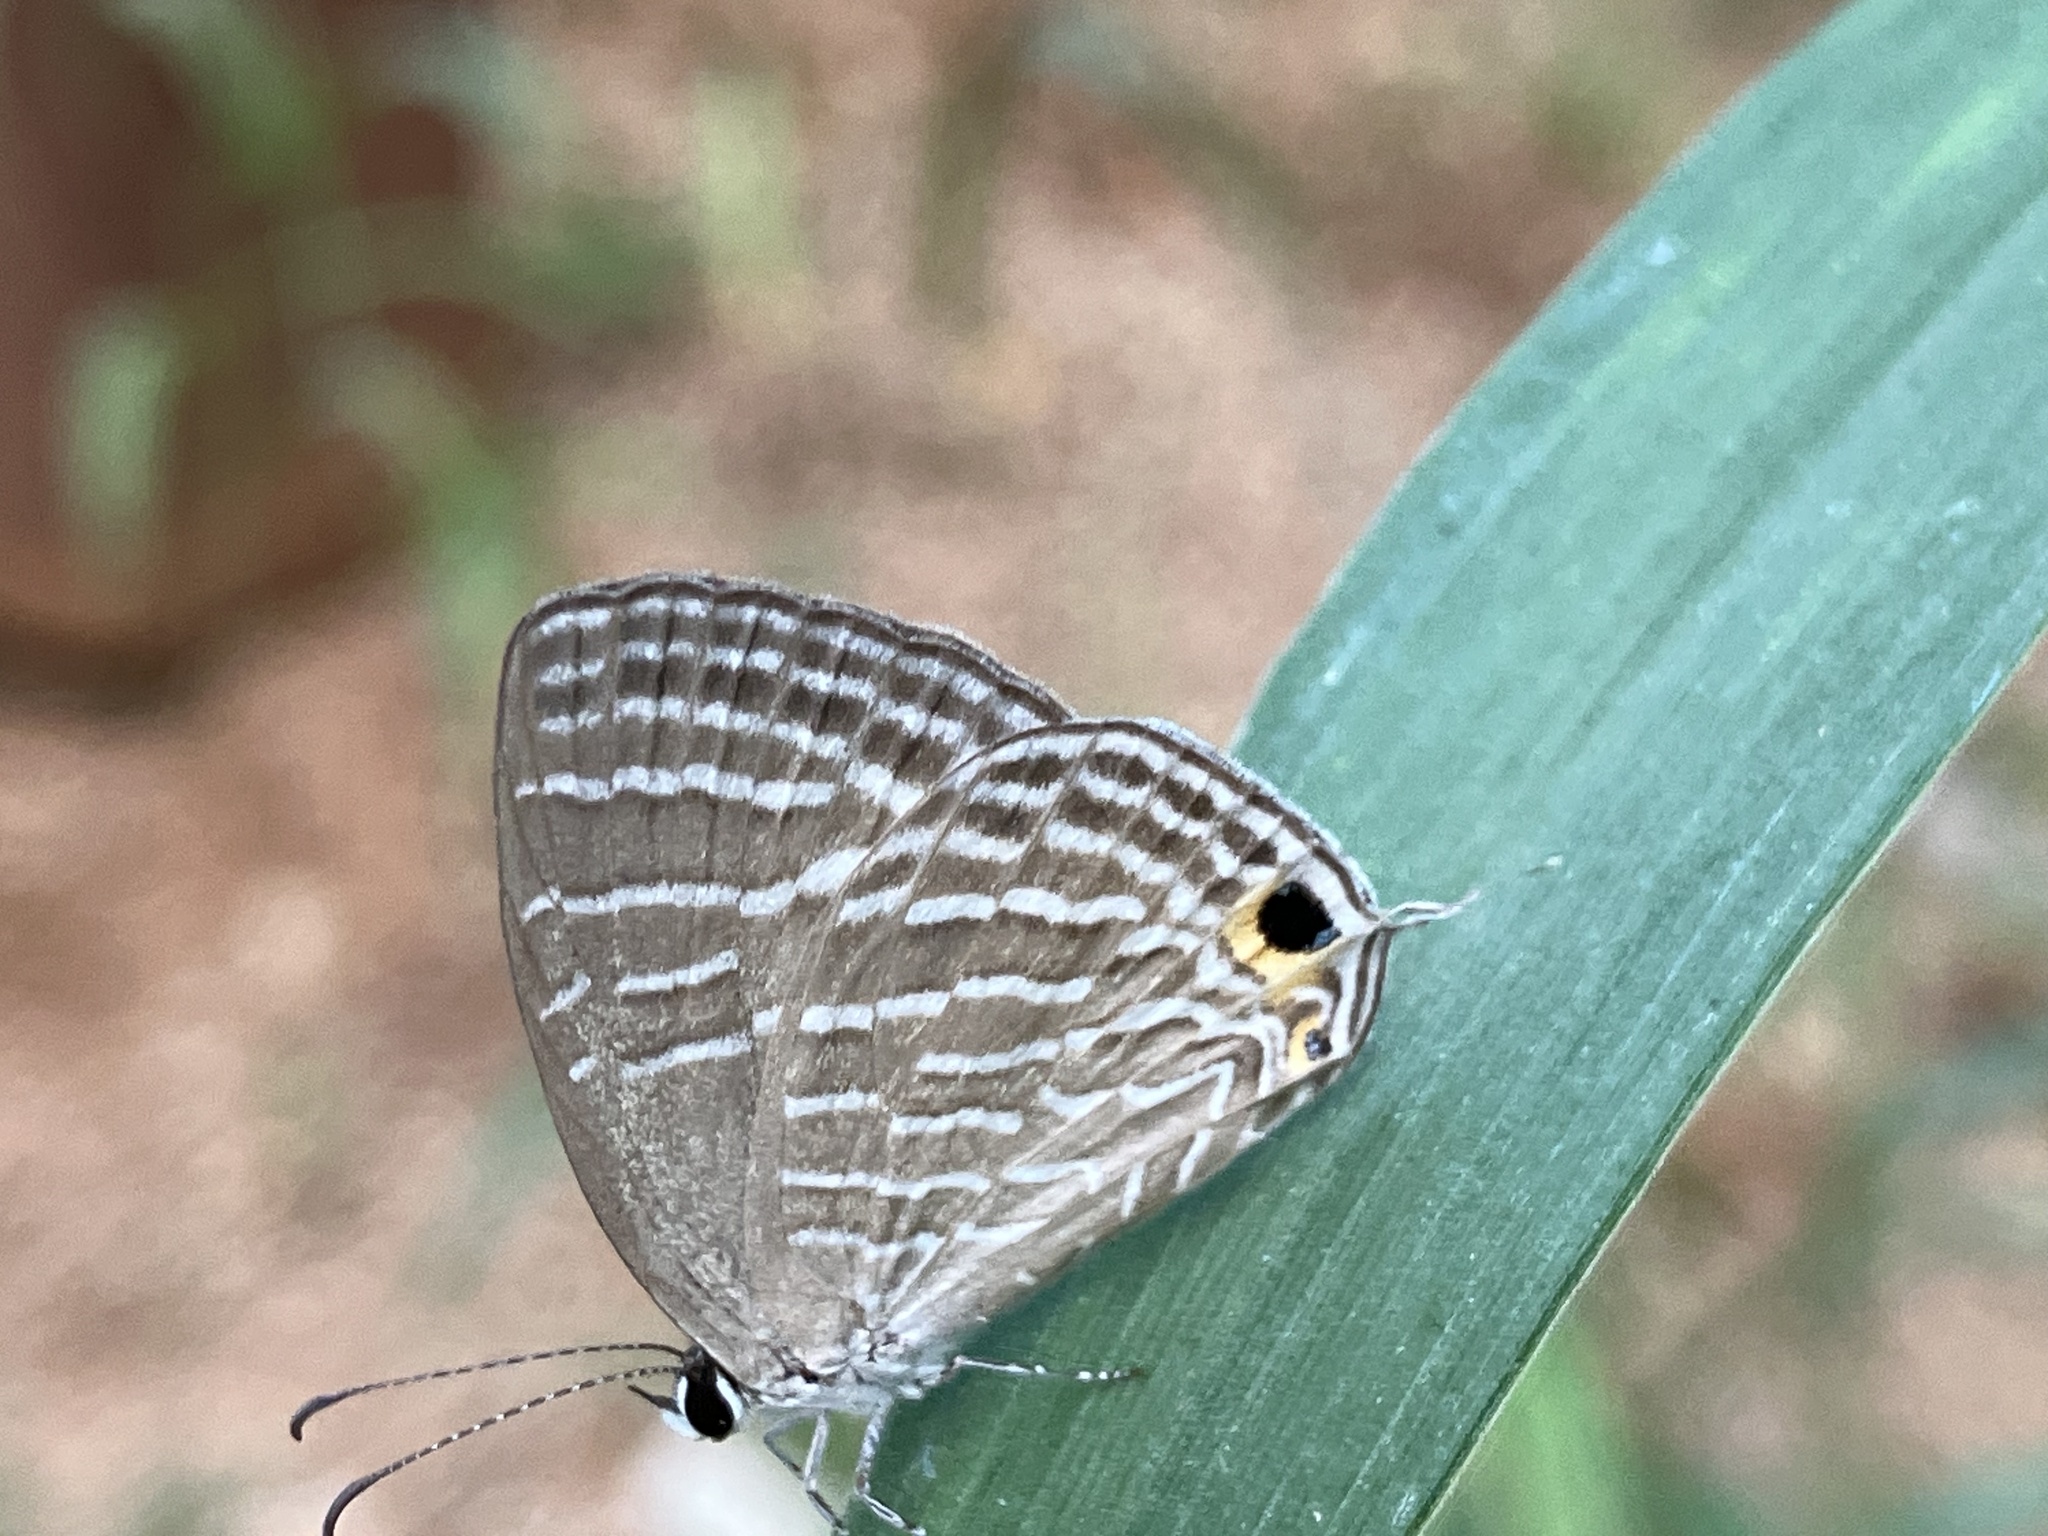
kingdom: Animalia
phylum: Arthropoda
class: Insecta
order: Lepidoptera
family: Lycaenidae
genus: Jamides
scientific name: Jamides celeno
